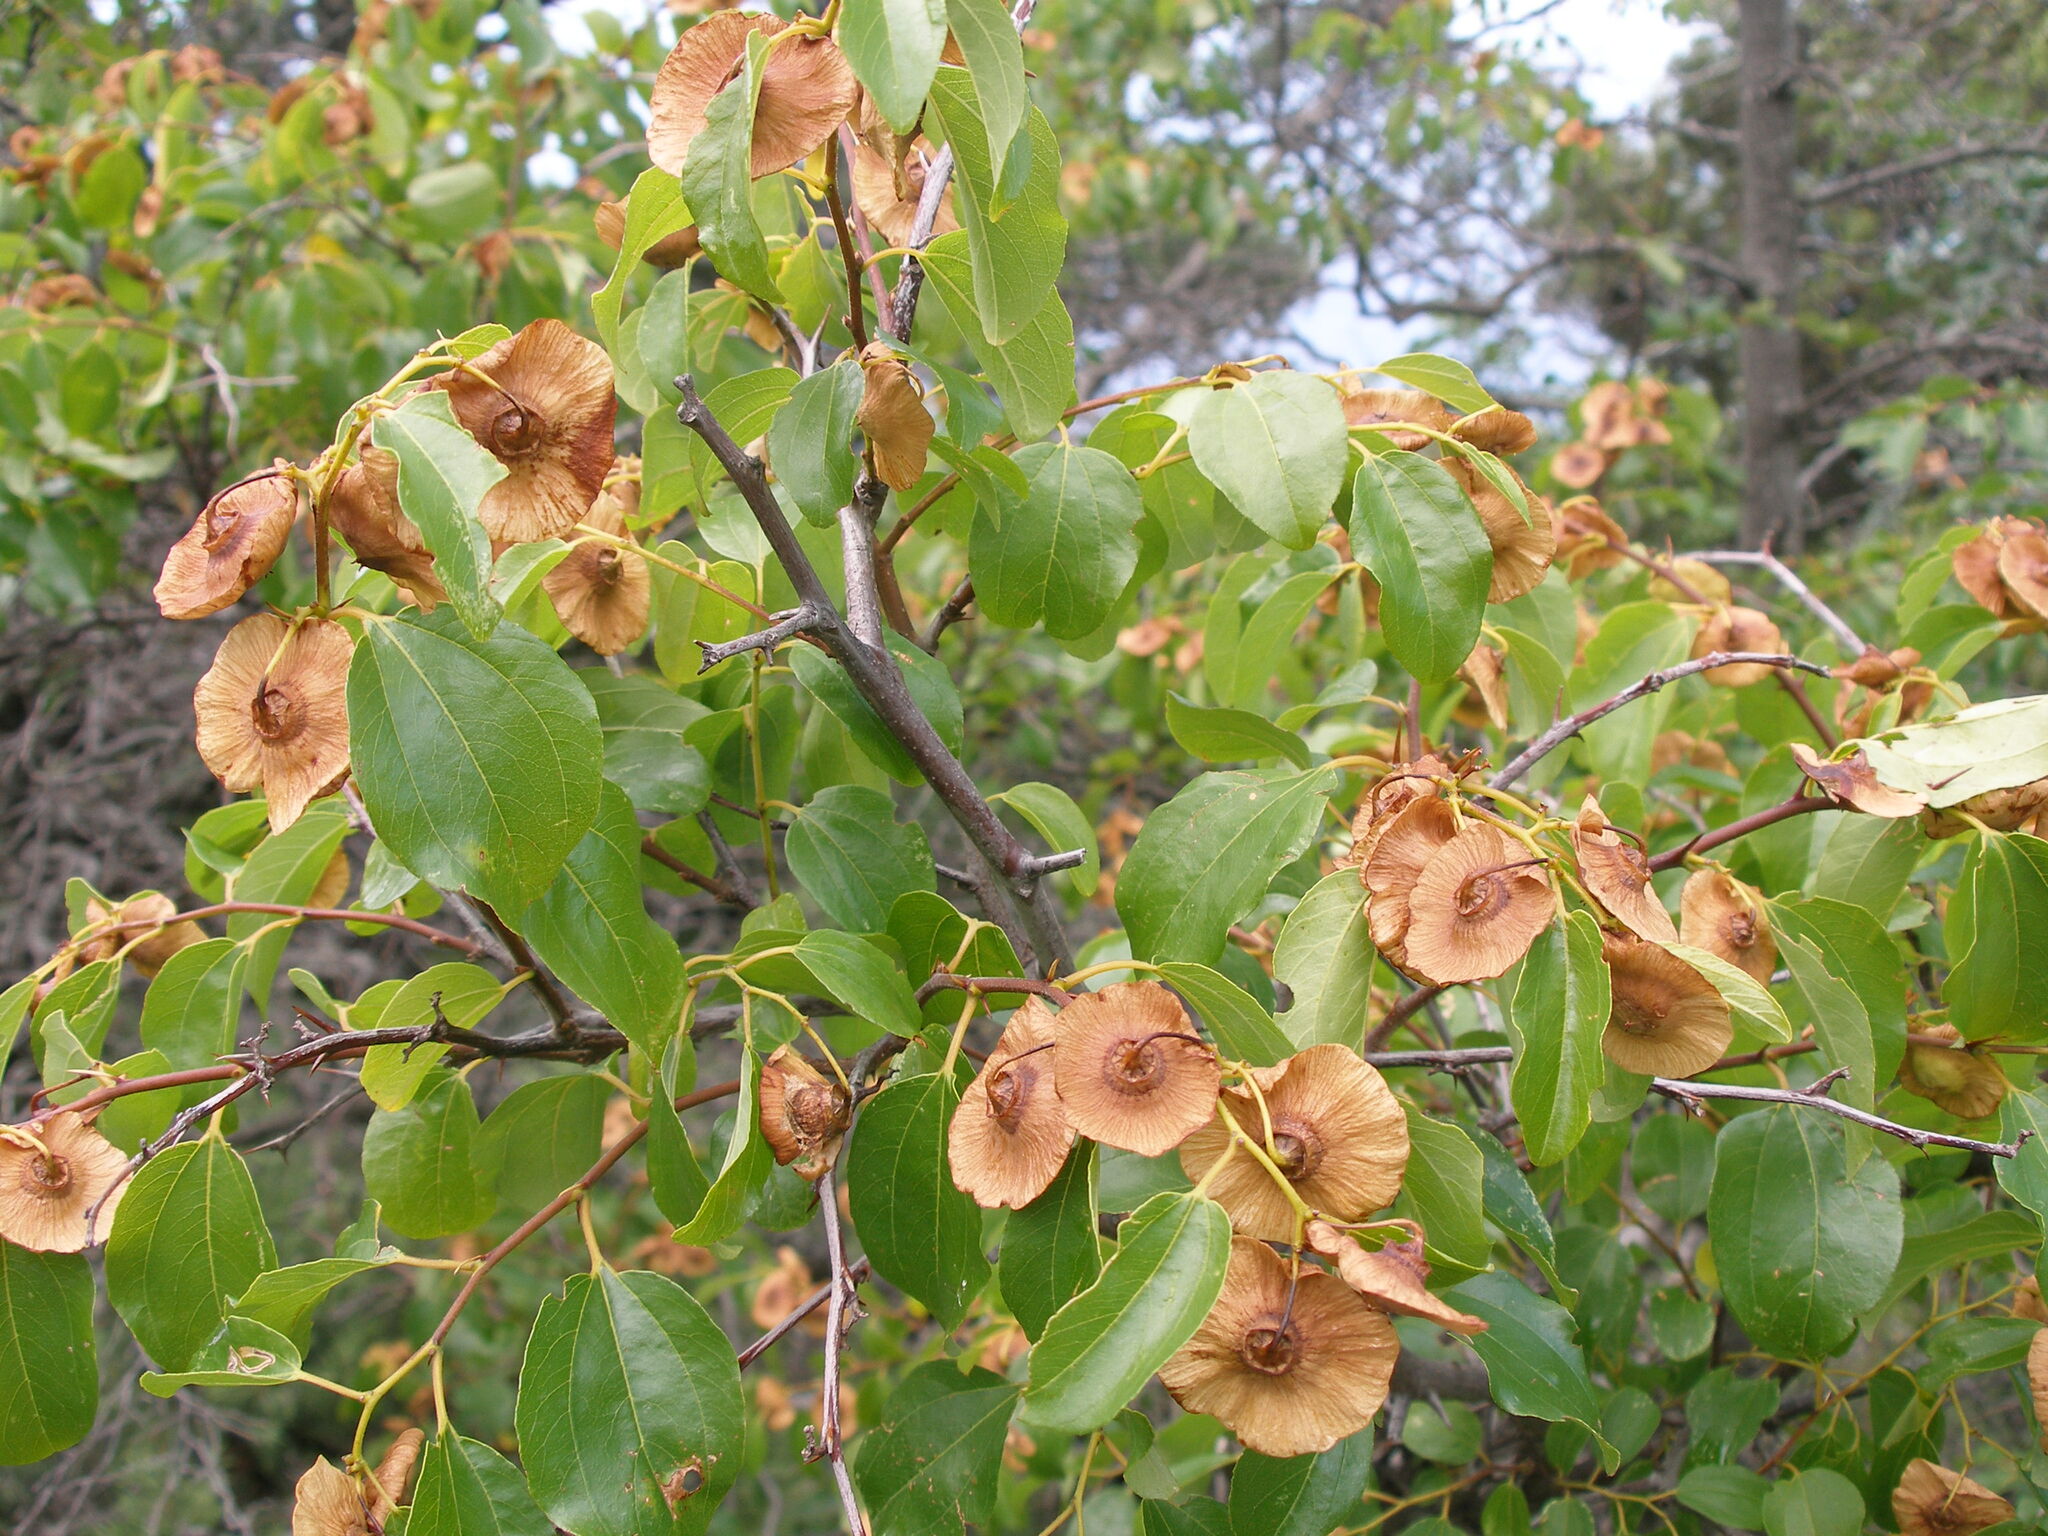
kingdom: Plantae
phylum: Tracheophyta
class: Magnoliopsida
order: Rosales
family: Rhamnaceae
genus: Paliurus
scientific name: Paliurus spina-christi
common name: Jeruselem thorn
